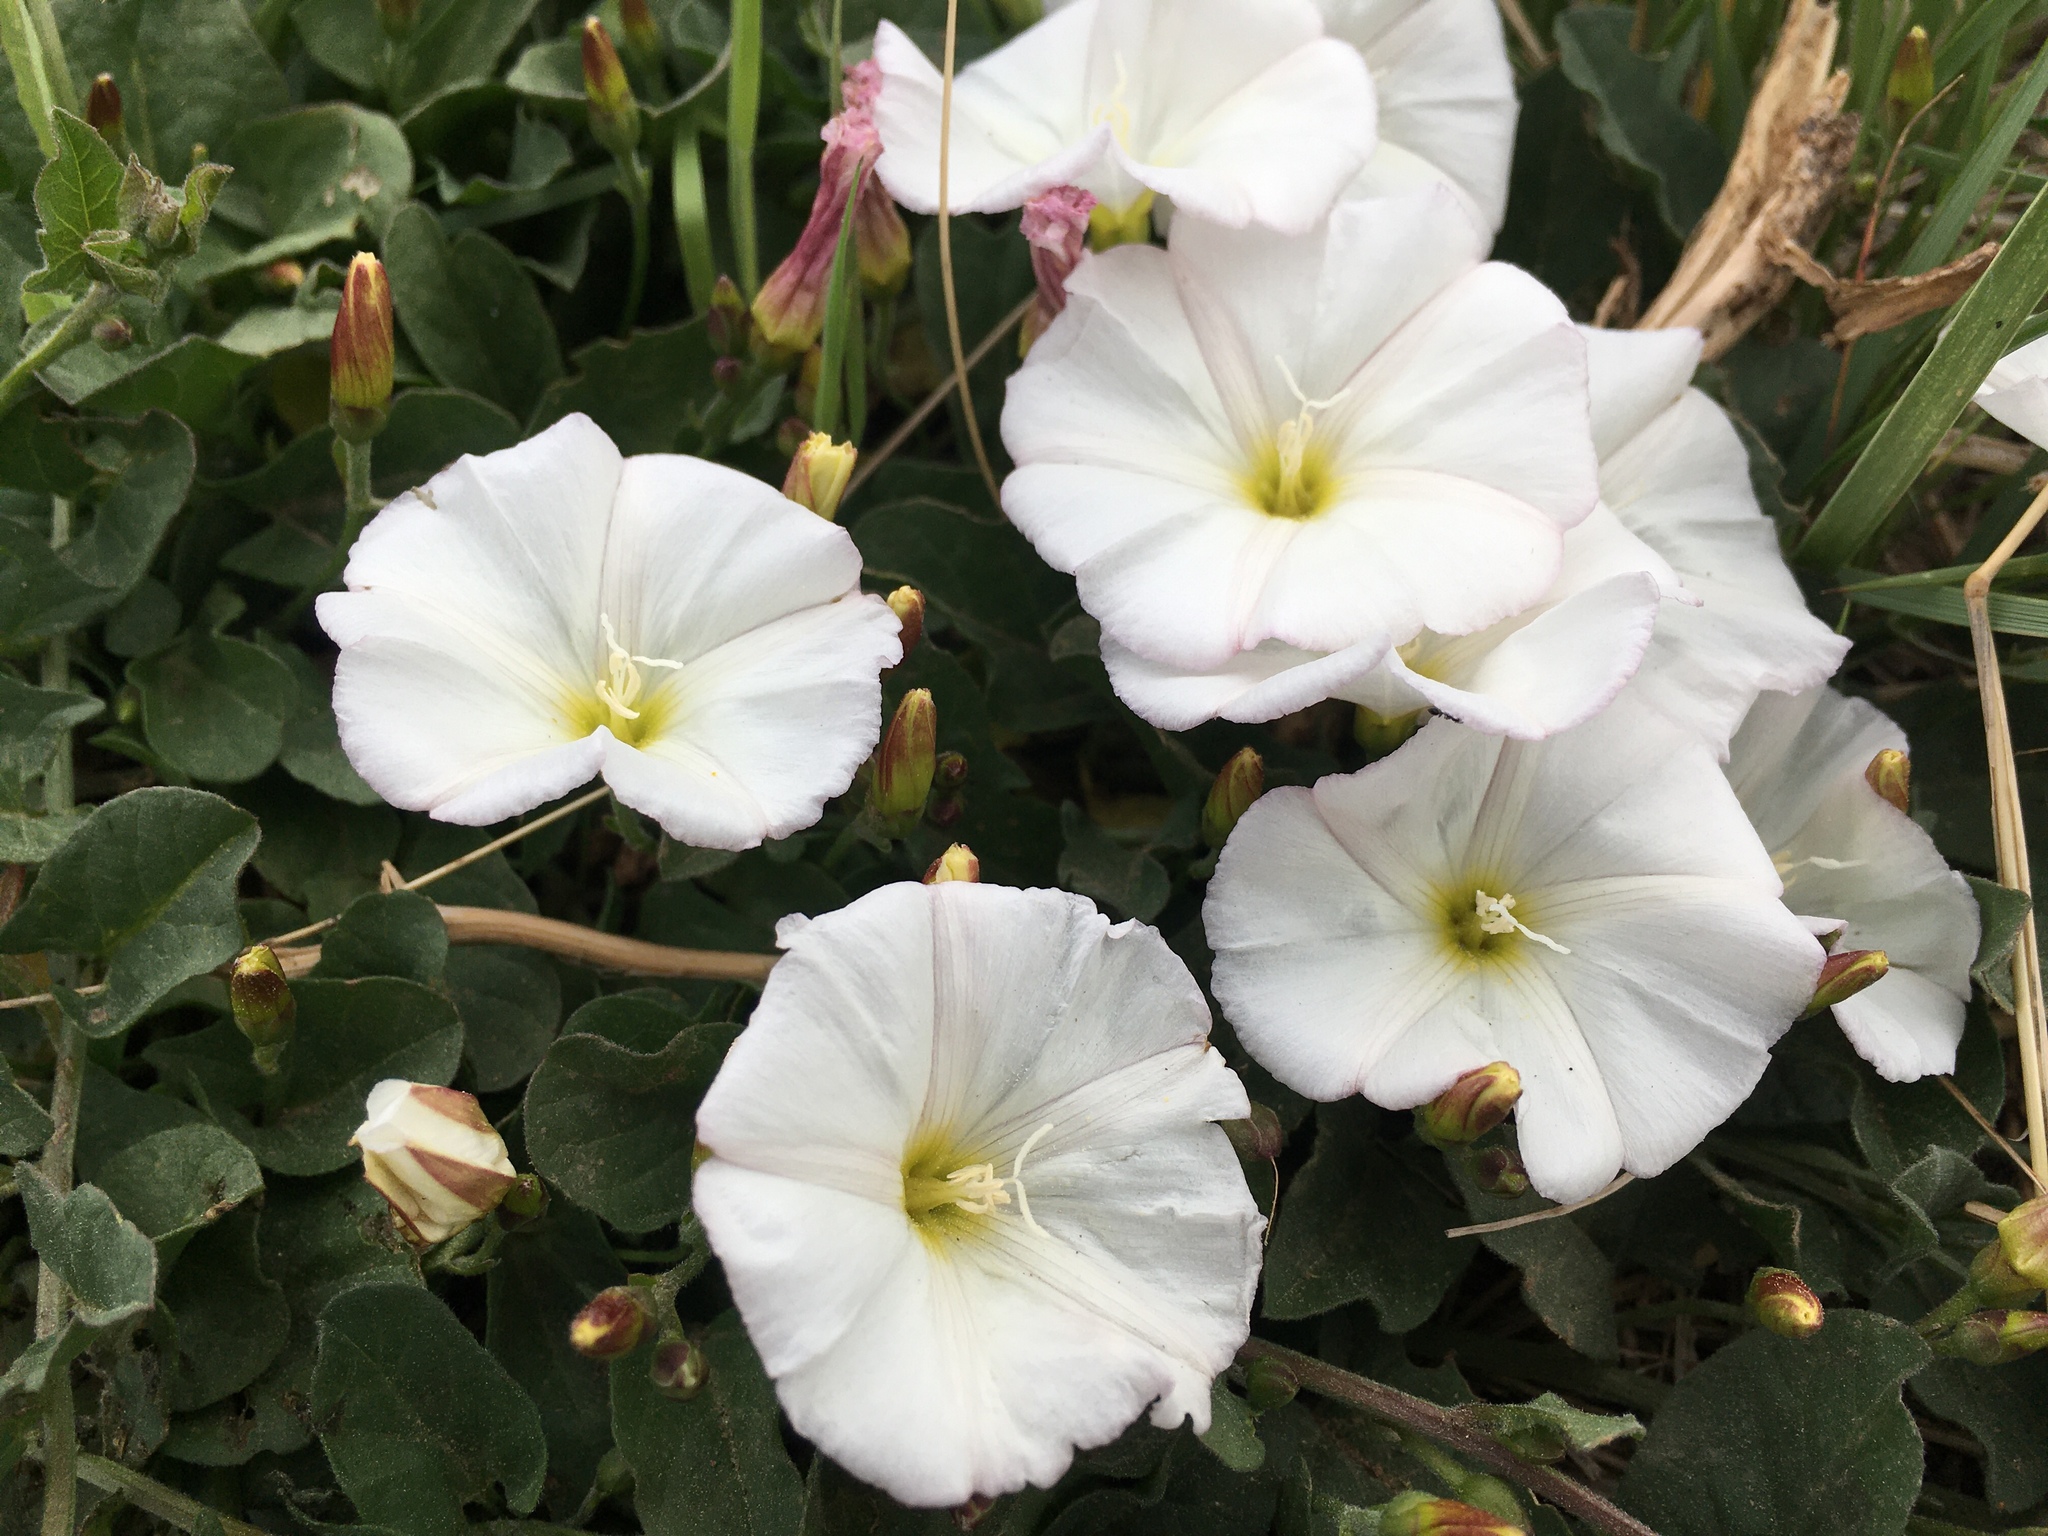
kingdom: Plantae
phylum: Tracheophyta
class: Magnoliopsida
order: Solanales
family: Convolvulaceae
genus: Convolvulus
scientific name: Convolvulus arvensis
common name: Field bindweed
